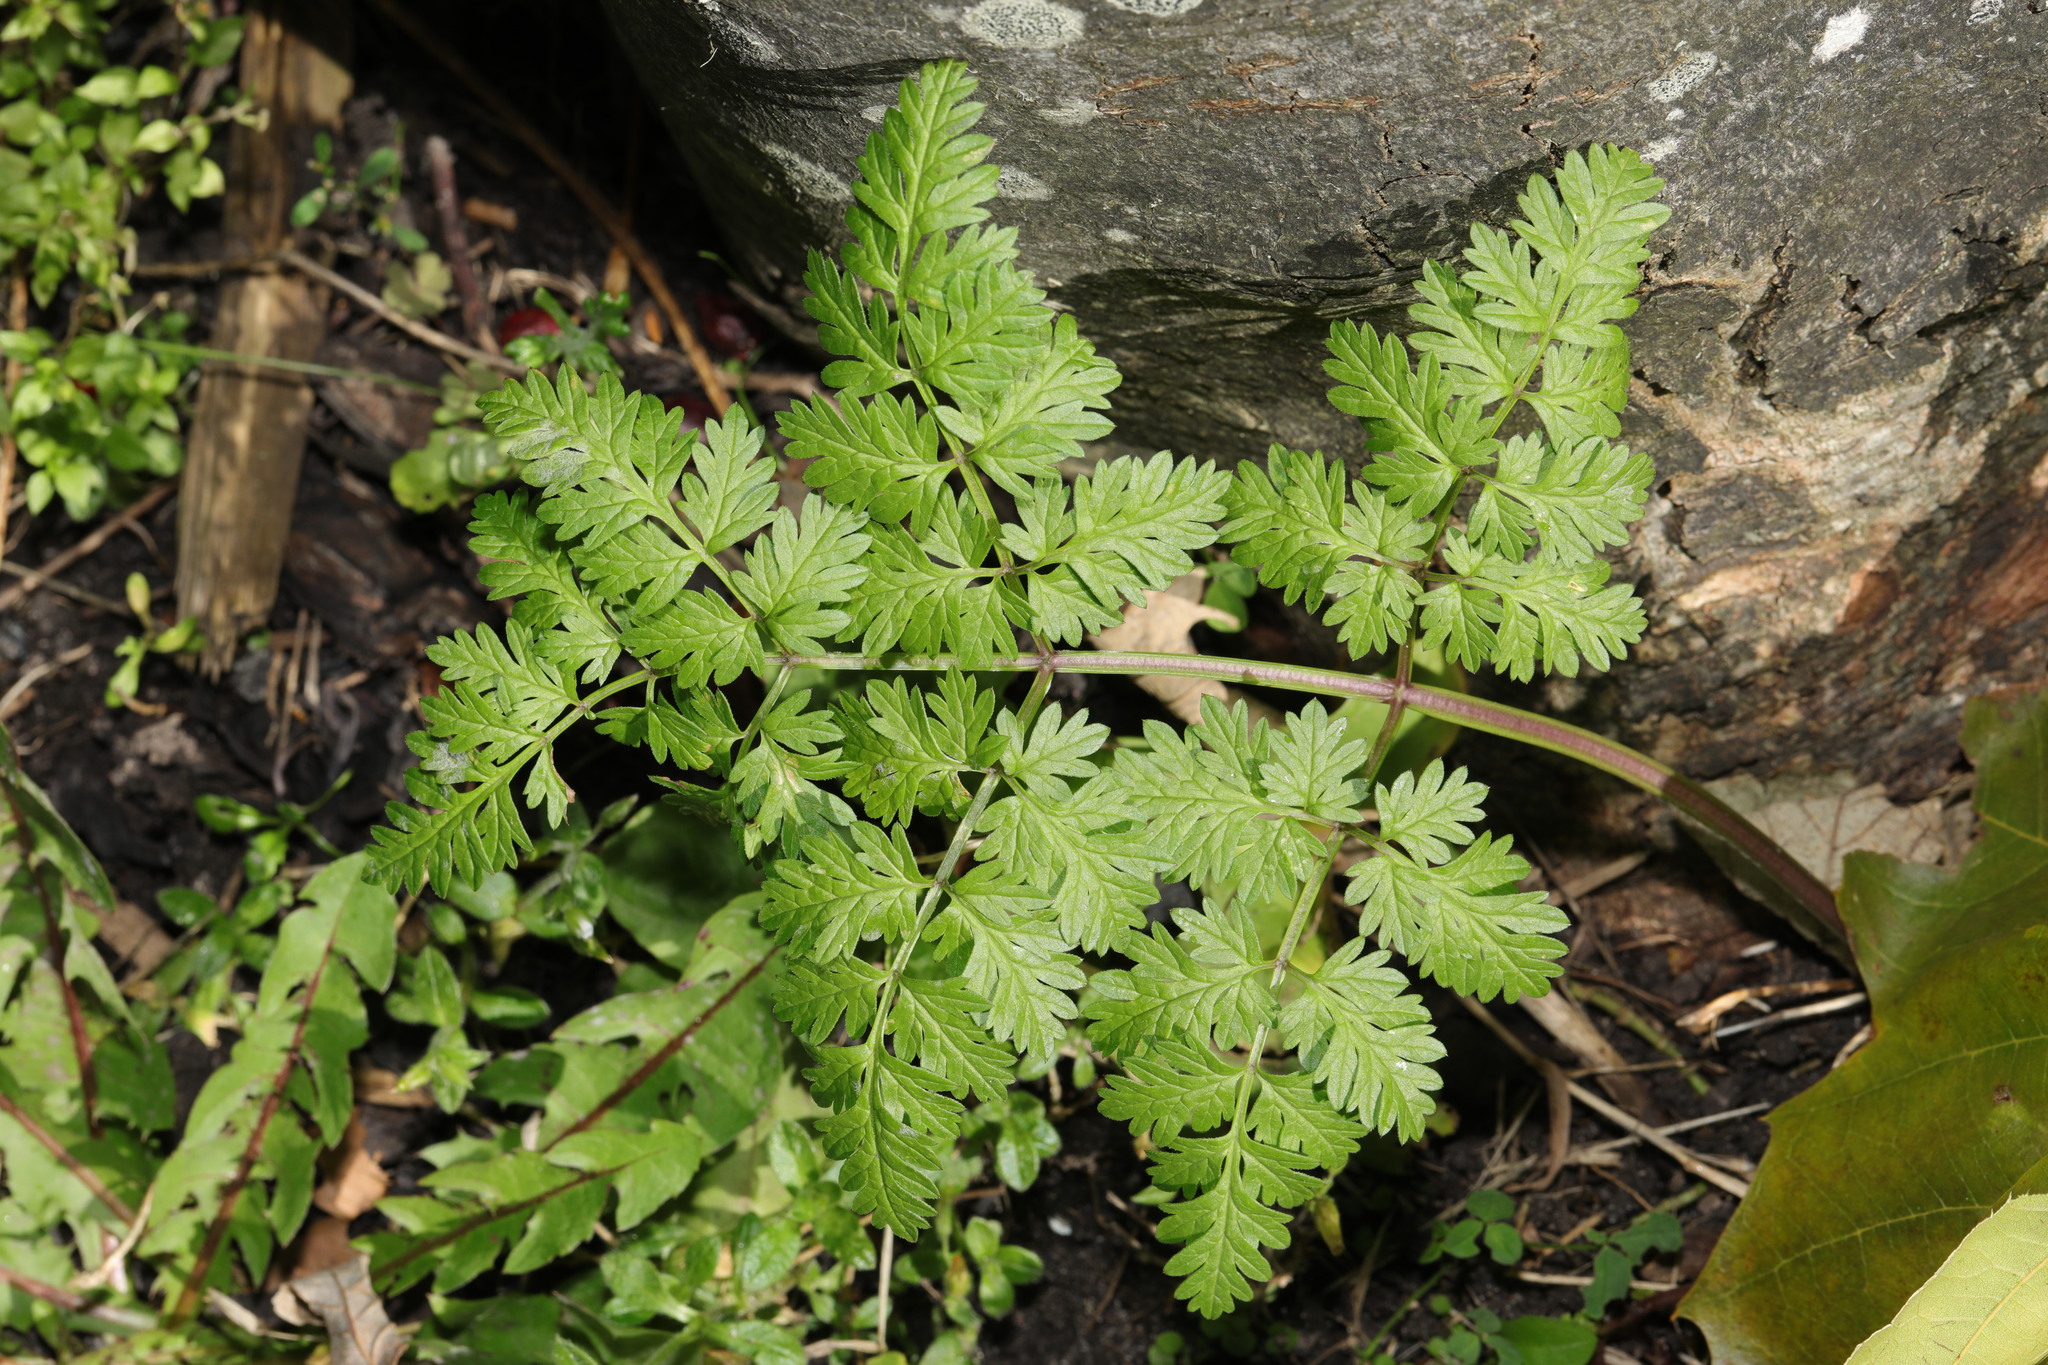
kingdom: Plantae
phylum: Tracheophyta
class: Magnoliopsida
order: Apiales
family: Apiaceae
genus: Anthriscus
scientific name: Anthriscus sylvestris
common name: Cow parsley
